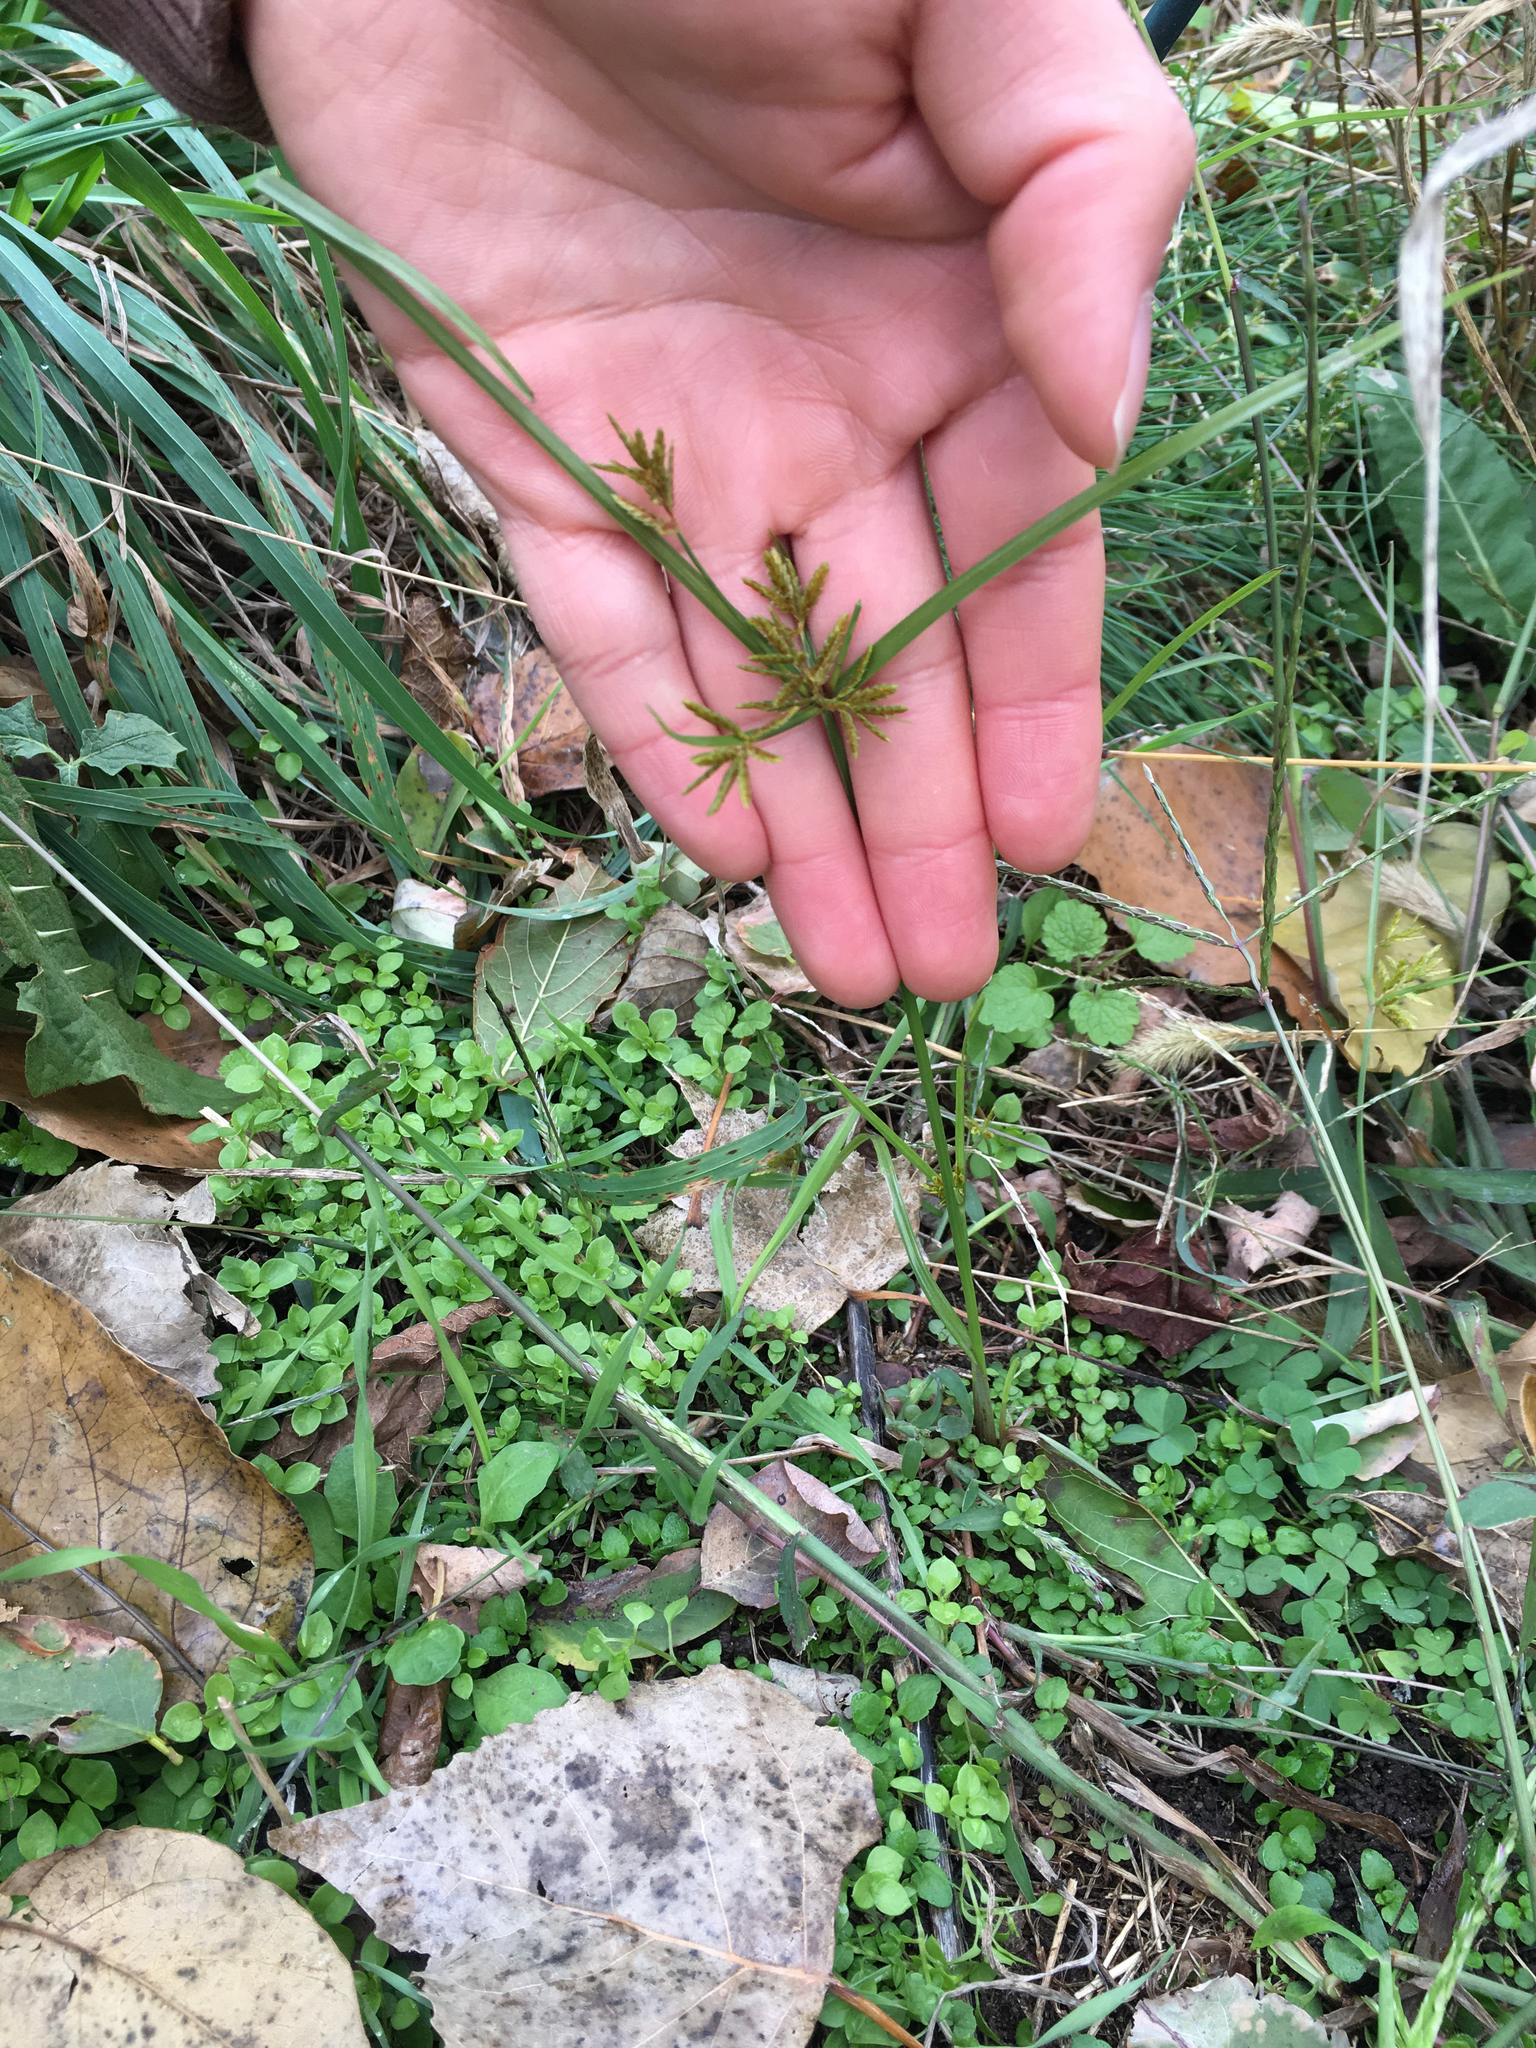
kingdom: Plantae
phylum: Tracheophyta
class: Liliopsida
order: Poales
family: Cyperaceae
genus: Cyperus
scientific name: Cyperus microiria
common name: Asian flatsedge
